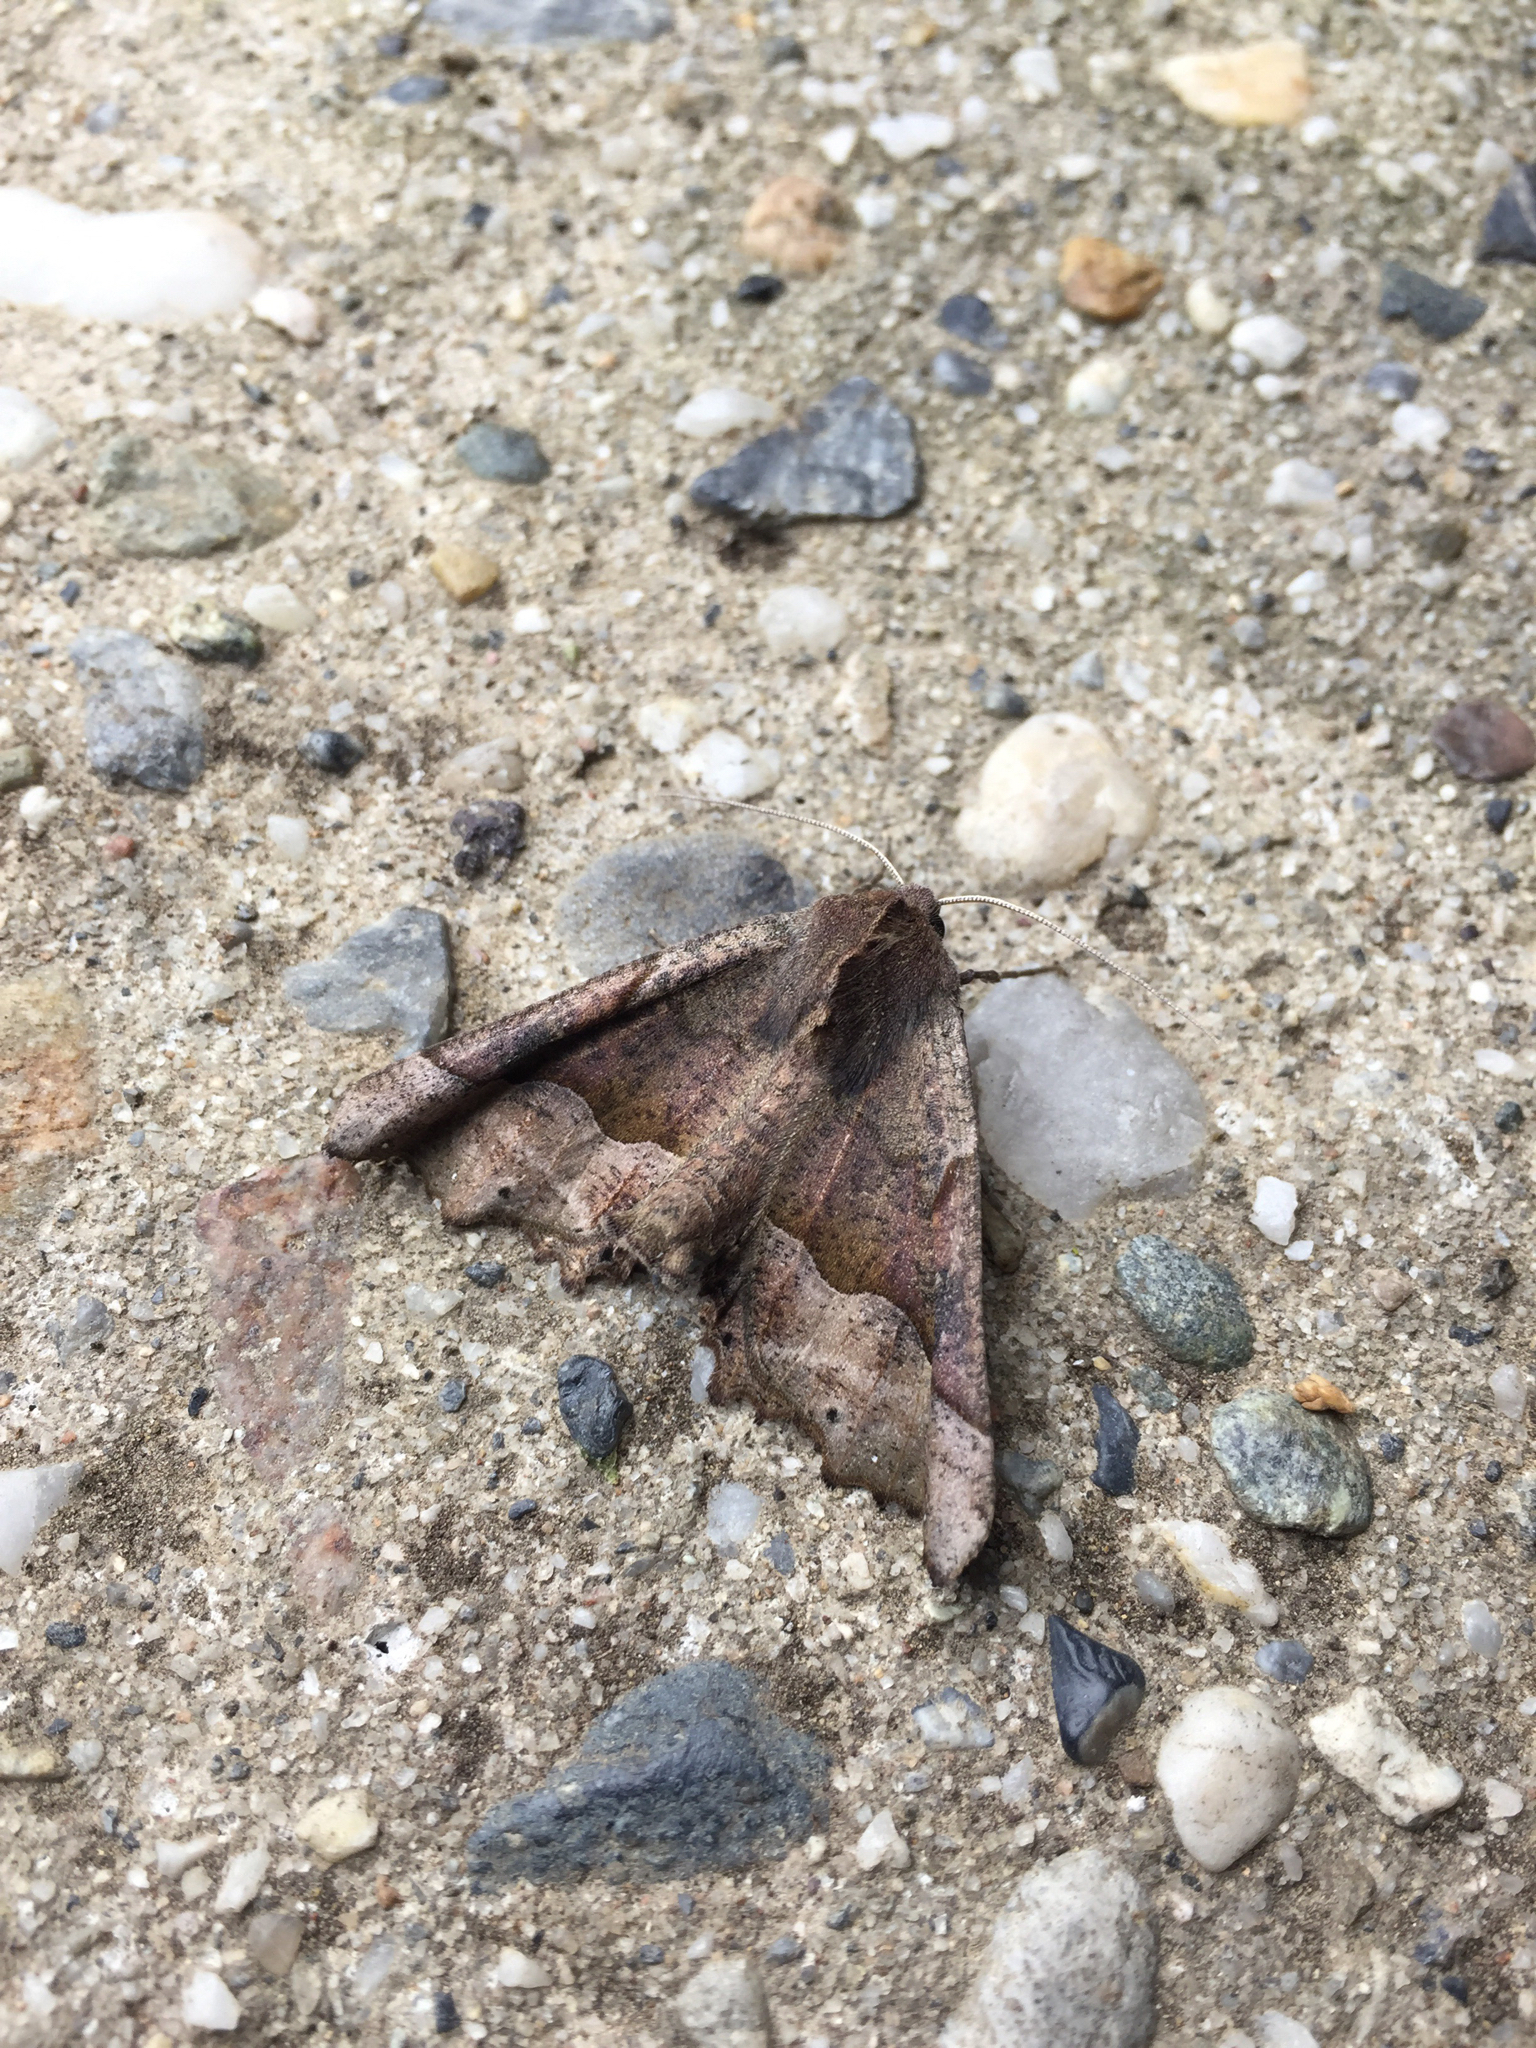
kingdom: Animalia
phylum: Arthropoda
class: Insecta
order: Lepidoptera
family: Geometridae
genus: Pero
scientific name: Pero occidentalis
